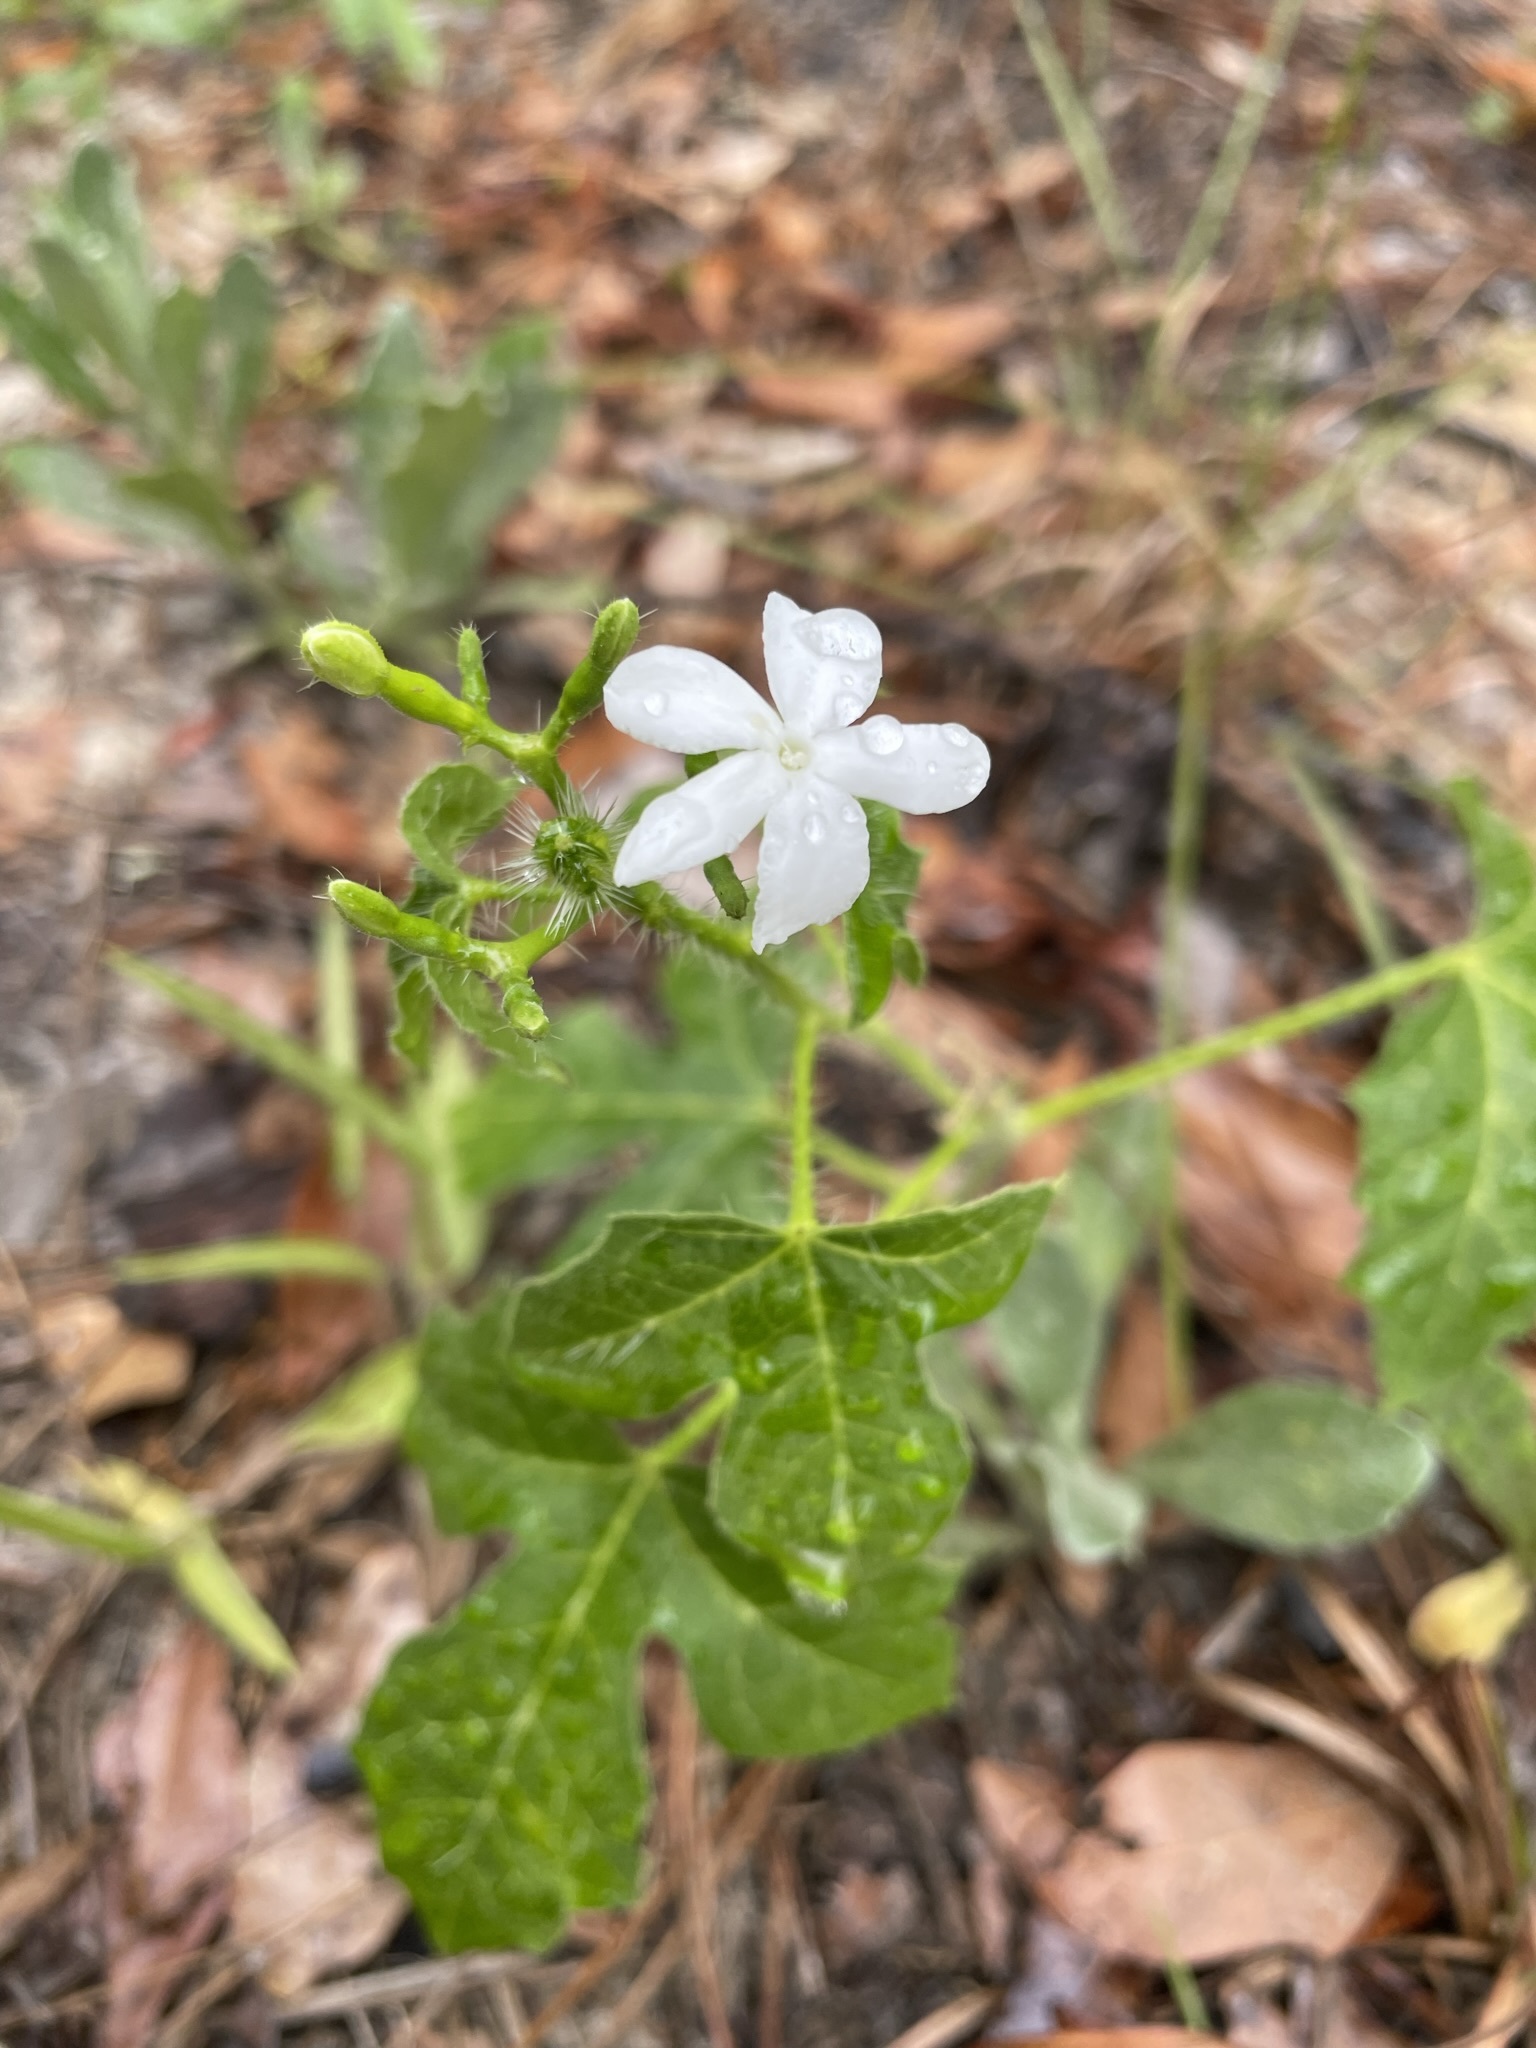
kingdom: Plantae
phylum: Tracheophyta
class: Magnoliopsida
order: Malpighiales
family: Euphorbiaceae
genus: Cnidoscolus
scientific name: Cnidoscolus stimulosus
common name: Bull-nettle
